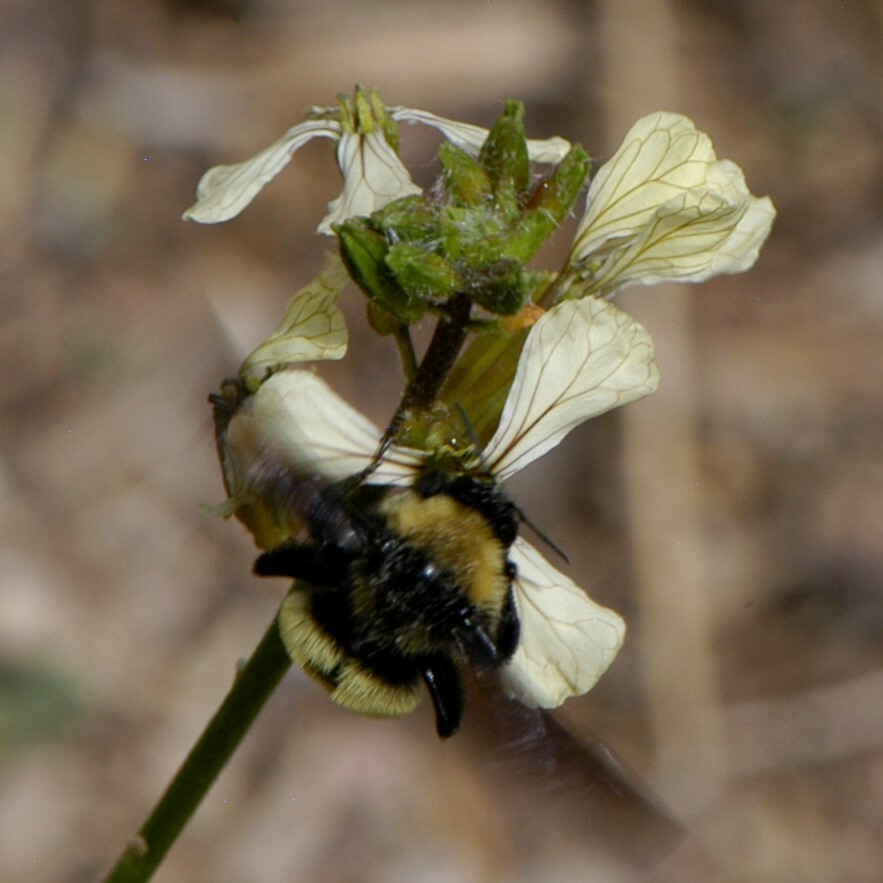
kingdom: Animalia
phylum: Arthropoda
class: Insecta
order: Hymenoptera
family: Apidae
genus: Bombus
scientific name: Bombus pensylvanicus
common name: Bumble bee
